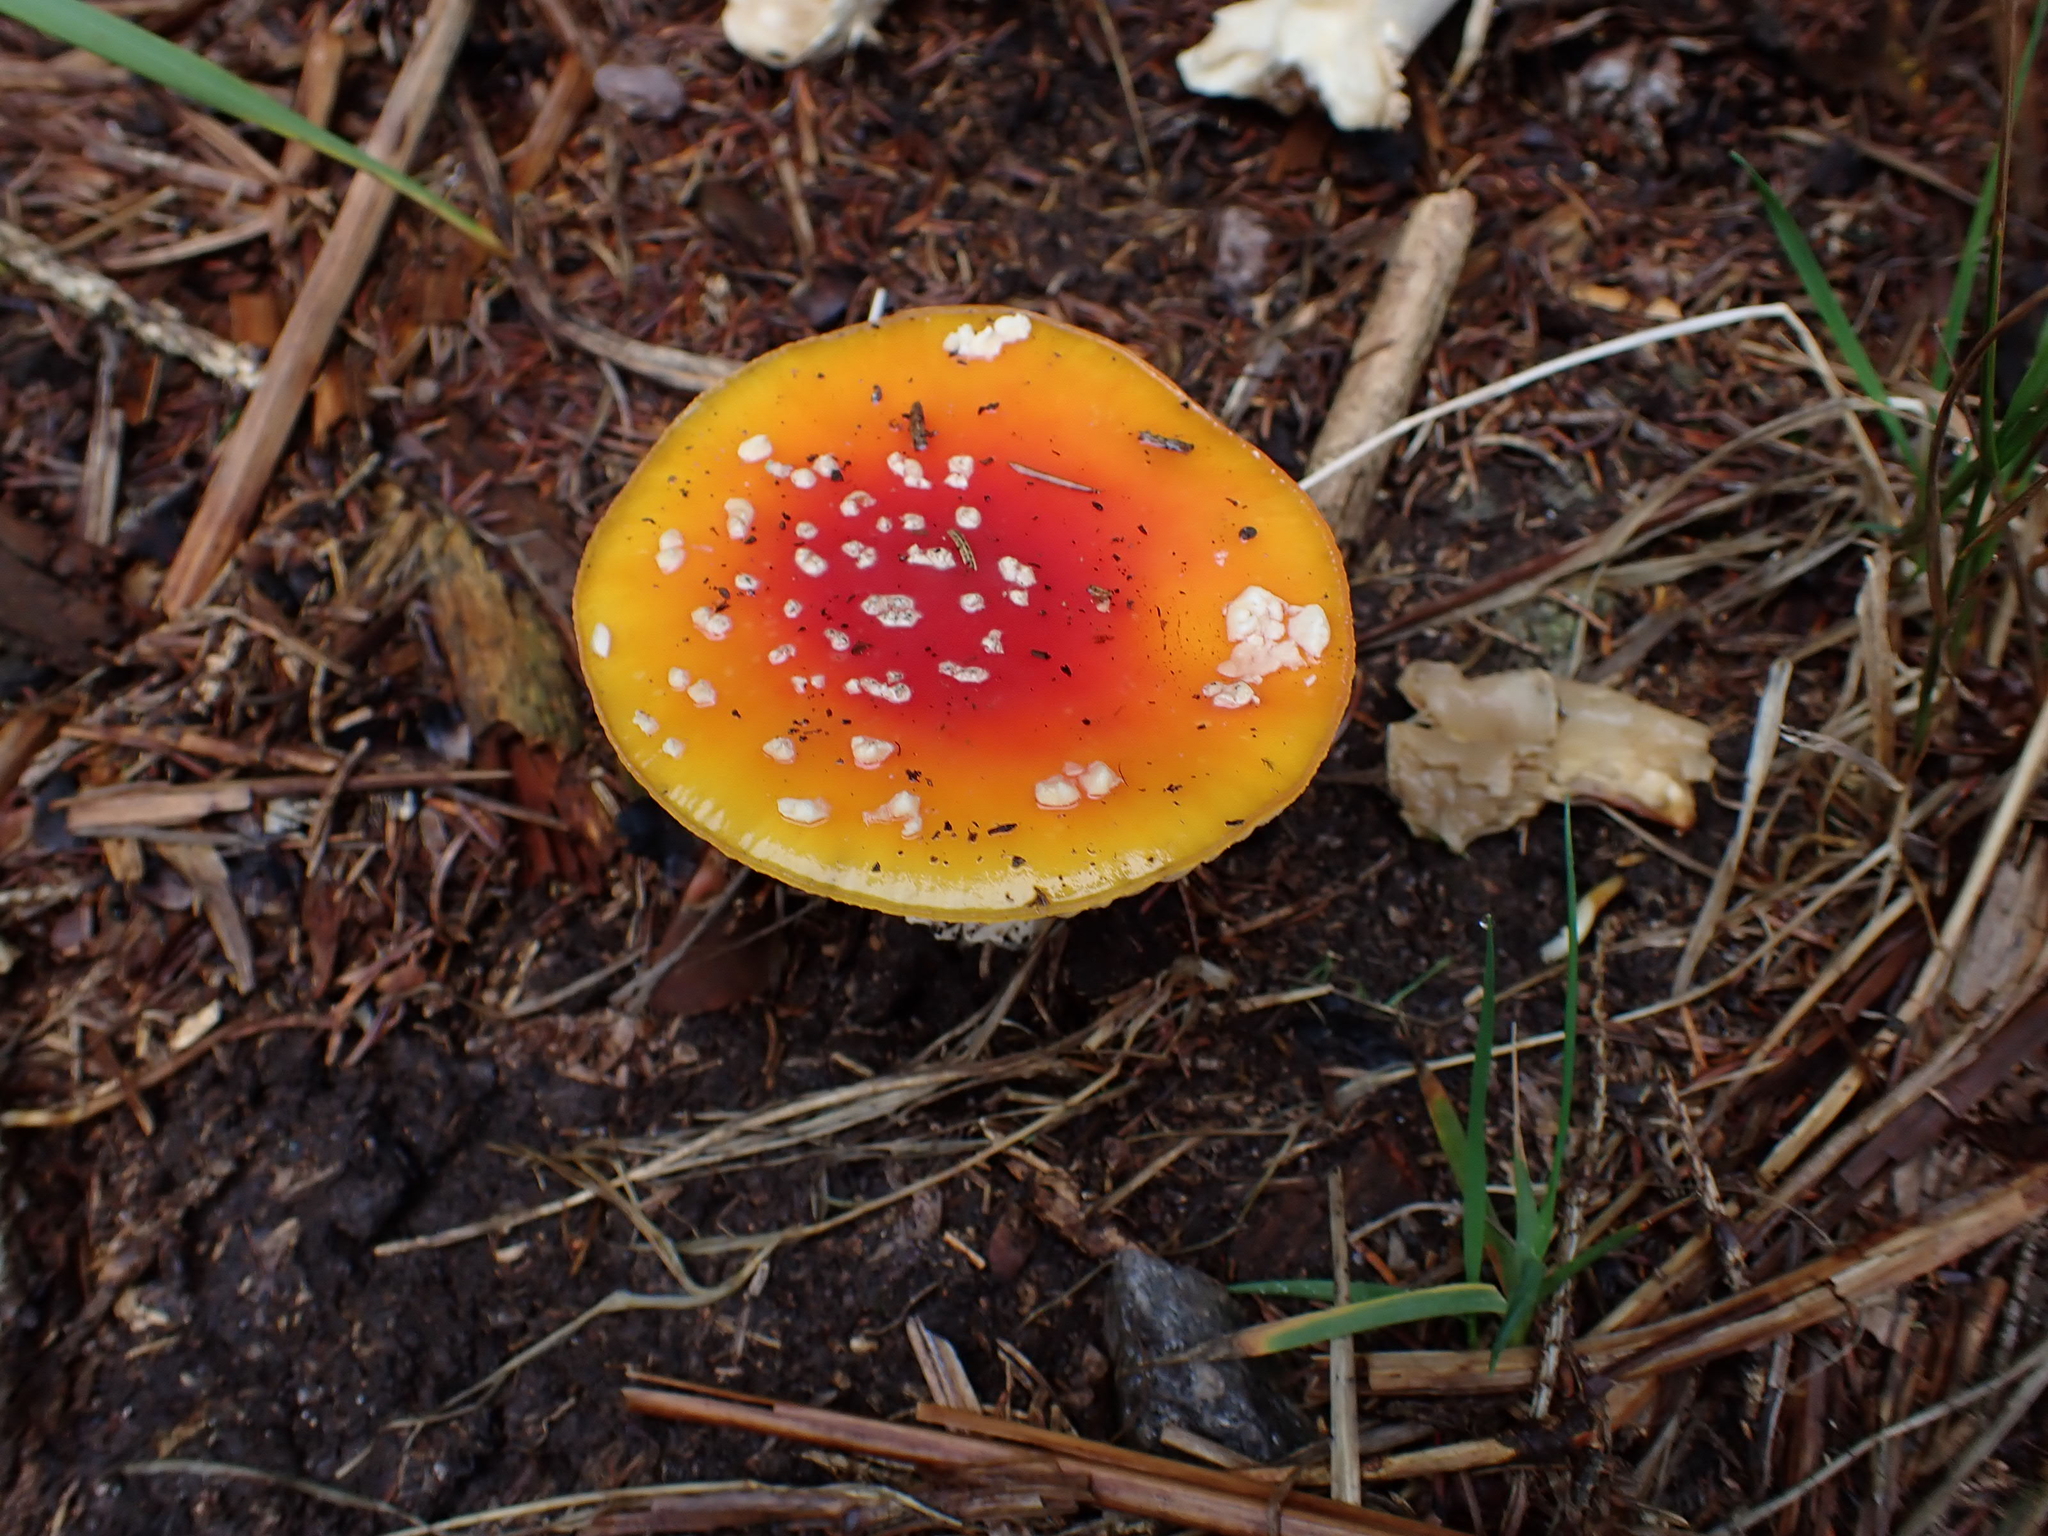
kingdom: Fungi
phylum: Basidiomycota
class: Agaricomycetes
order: Agaricales
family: Amanitaceae
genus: Amanita
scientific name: Amanita muscaria
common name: Fly agaric
